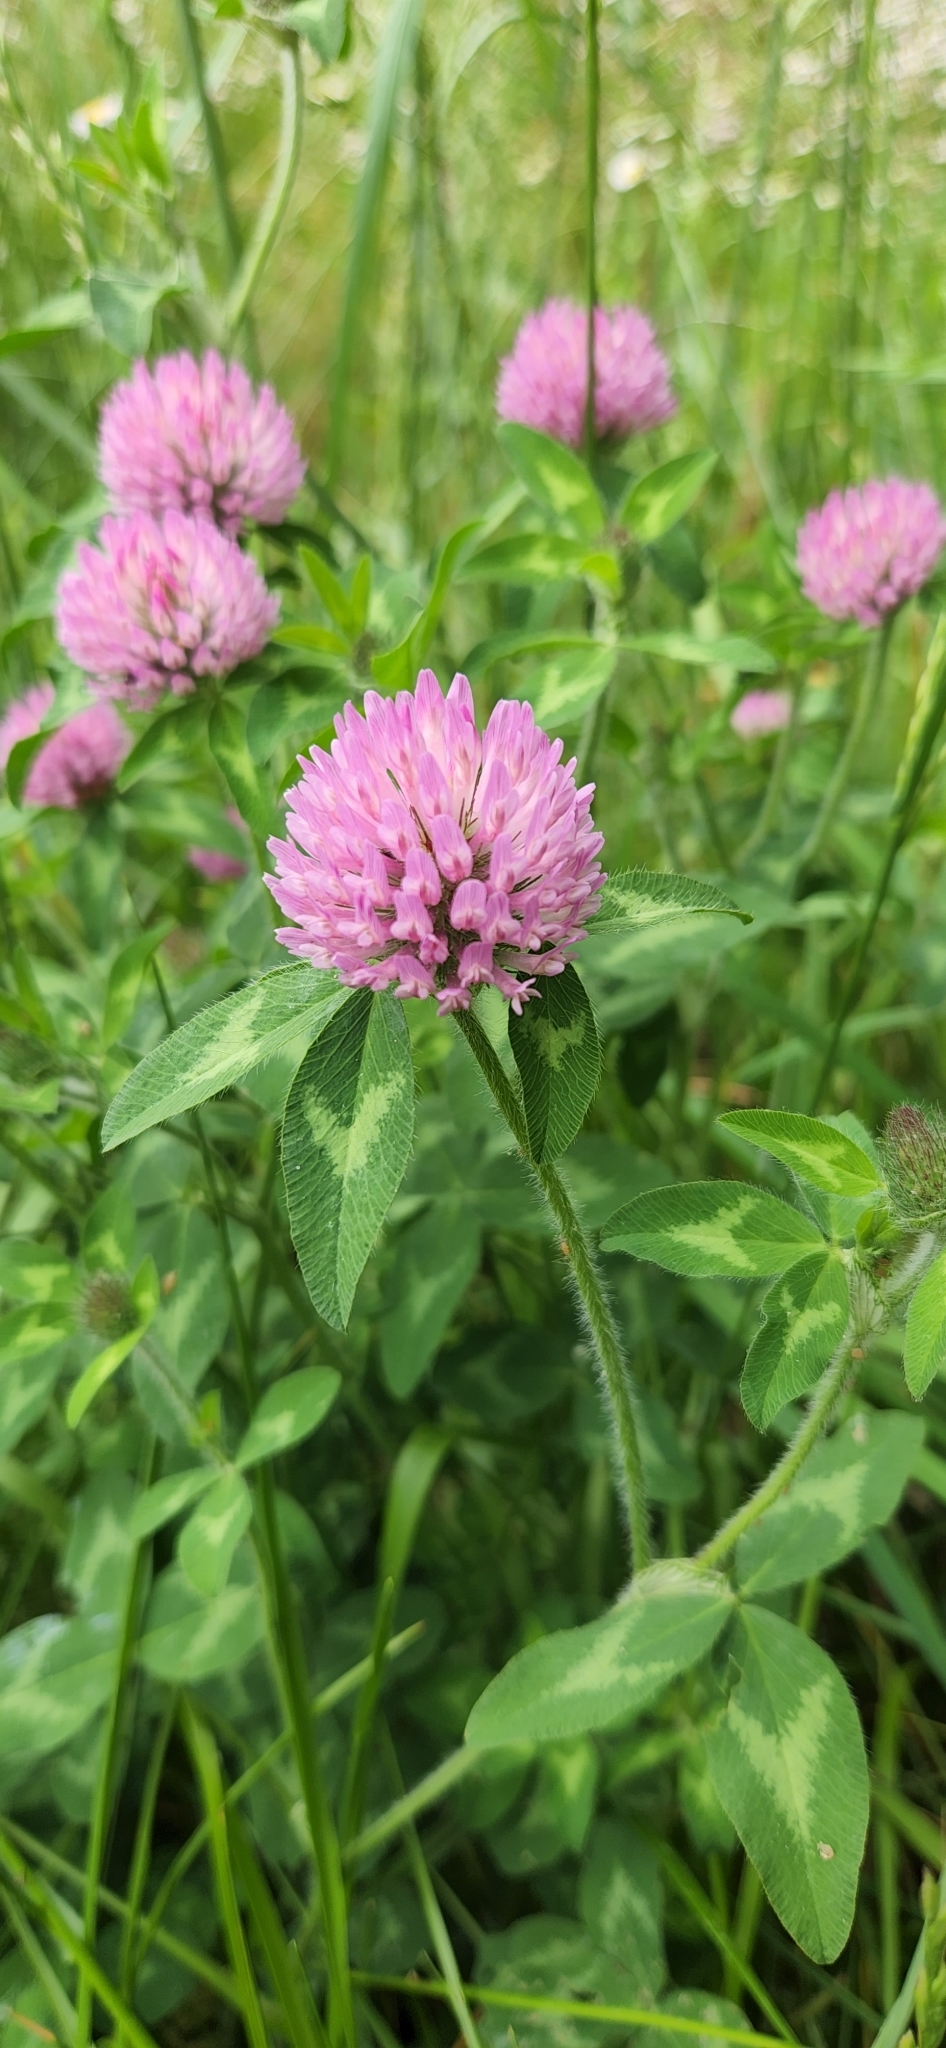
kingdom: Plantae
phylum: Tracheophyta
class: Magnoliopsida
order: Fabales
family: Fabaceae
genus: Trifolium
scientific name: Trifolium pratense
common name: Red clover
